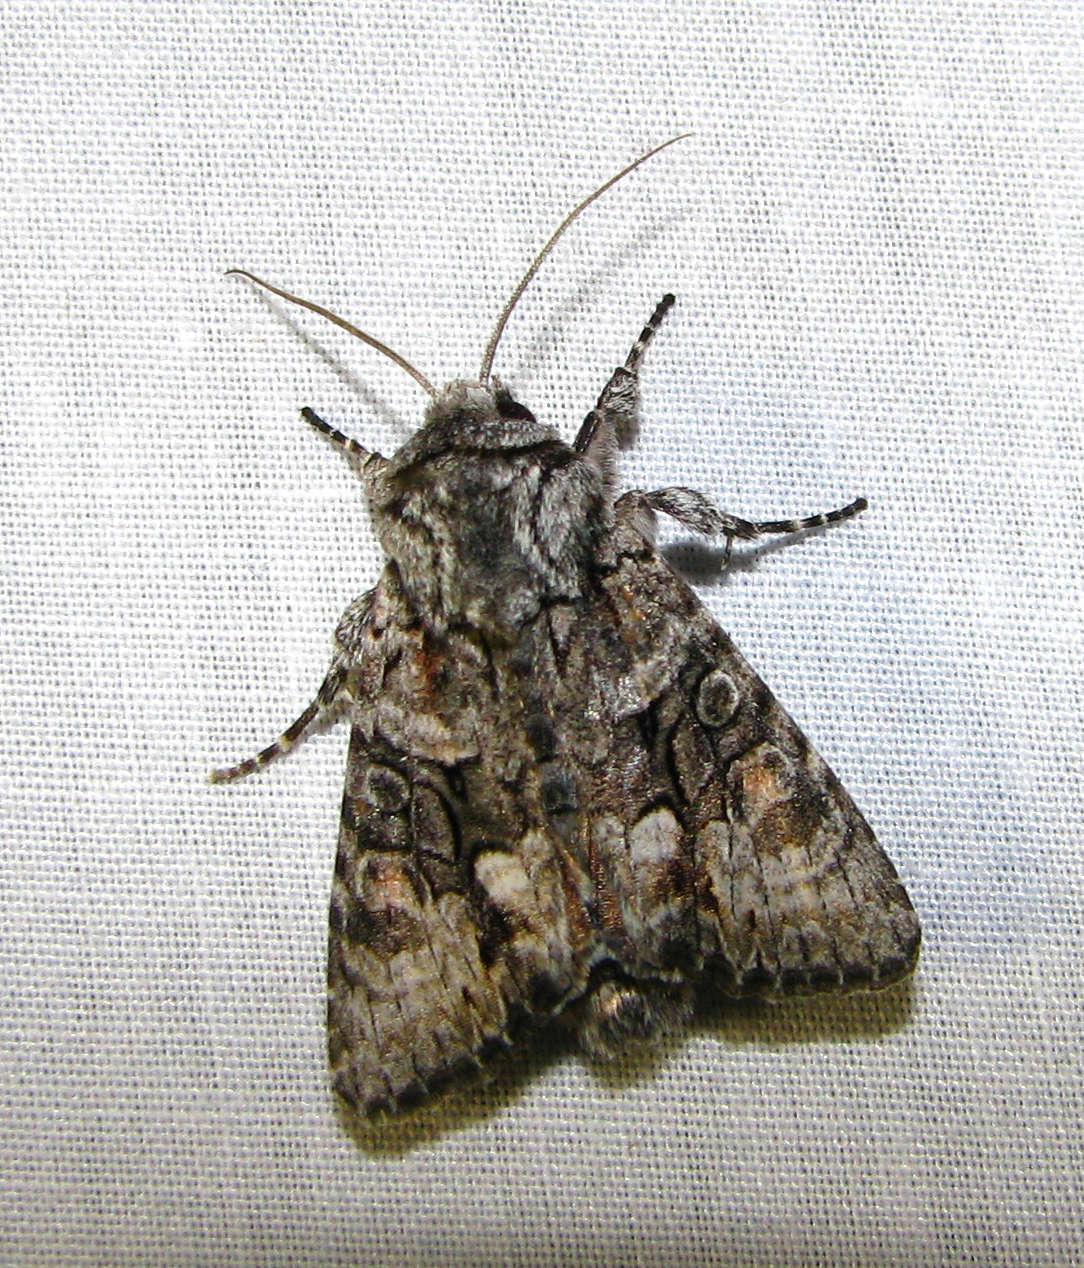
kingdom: Animalia
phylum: Arthropoda
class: Insecta
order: Lepidoptera
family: Noctuidae
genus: Neumichtis
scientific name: Neumichtis expulsa
